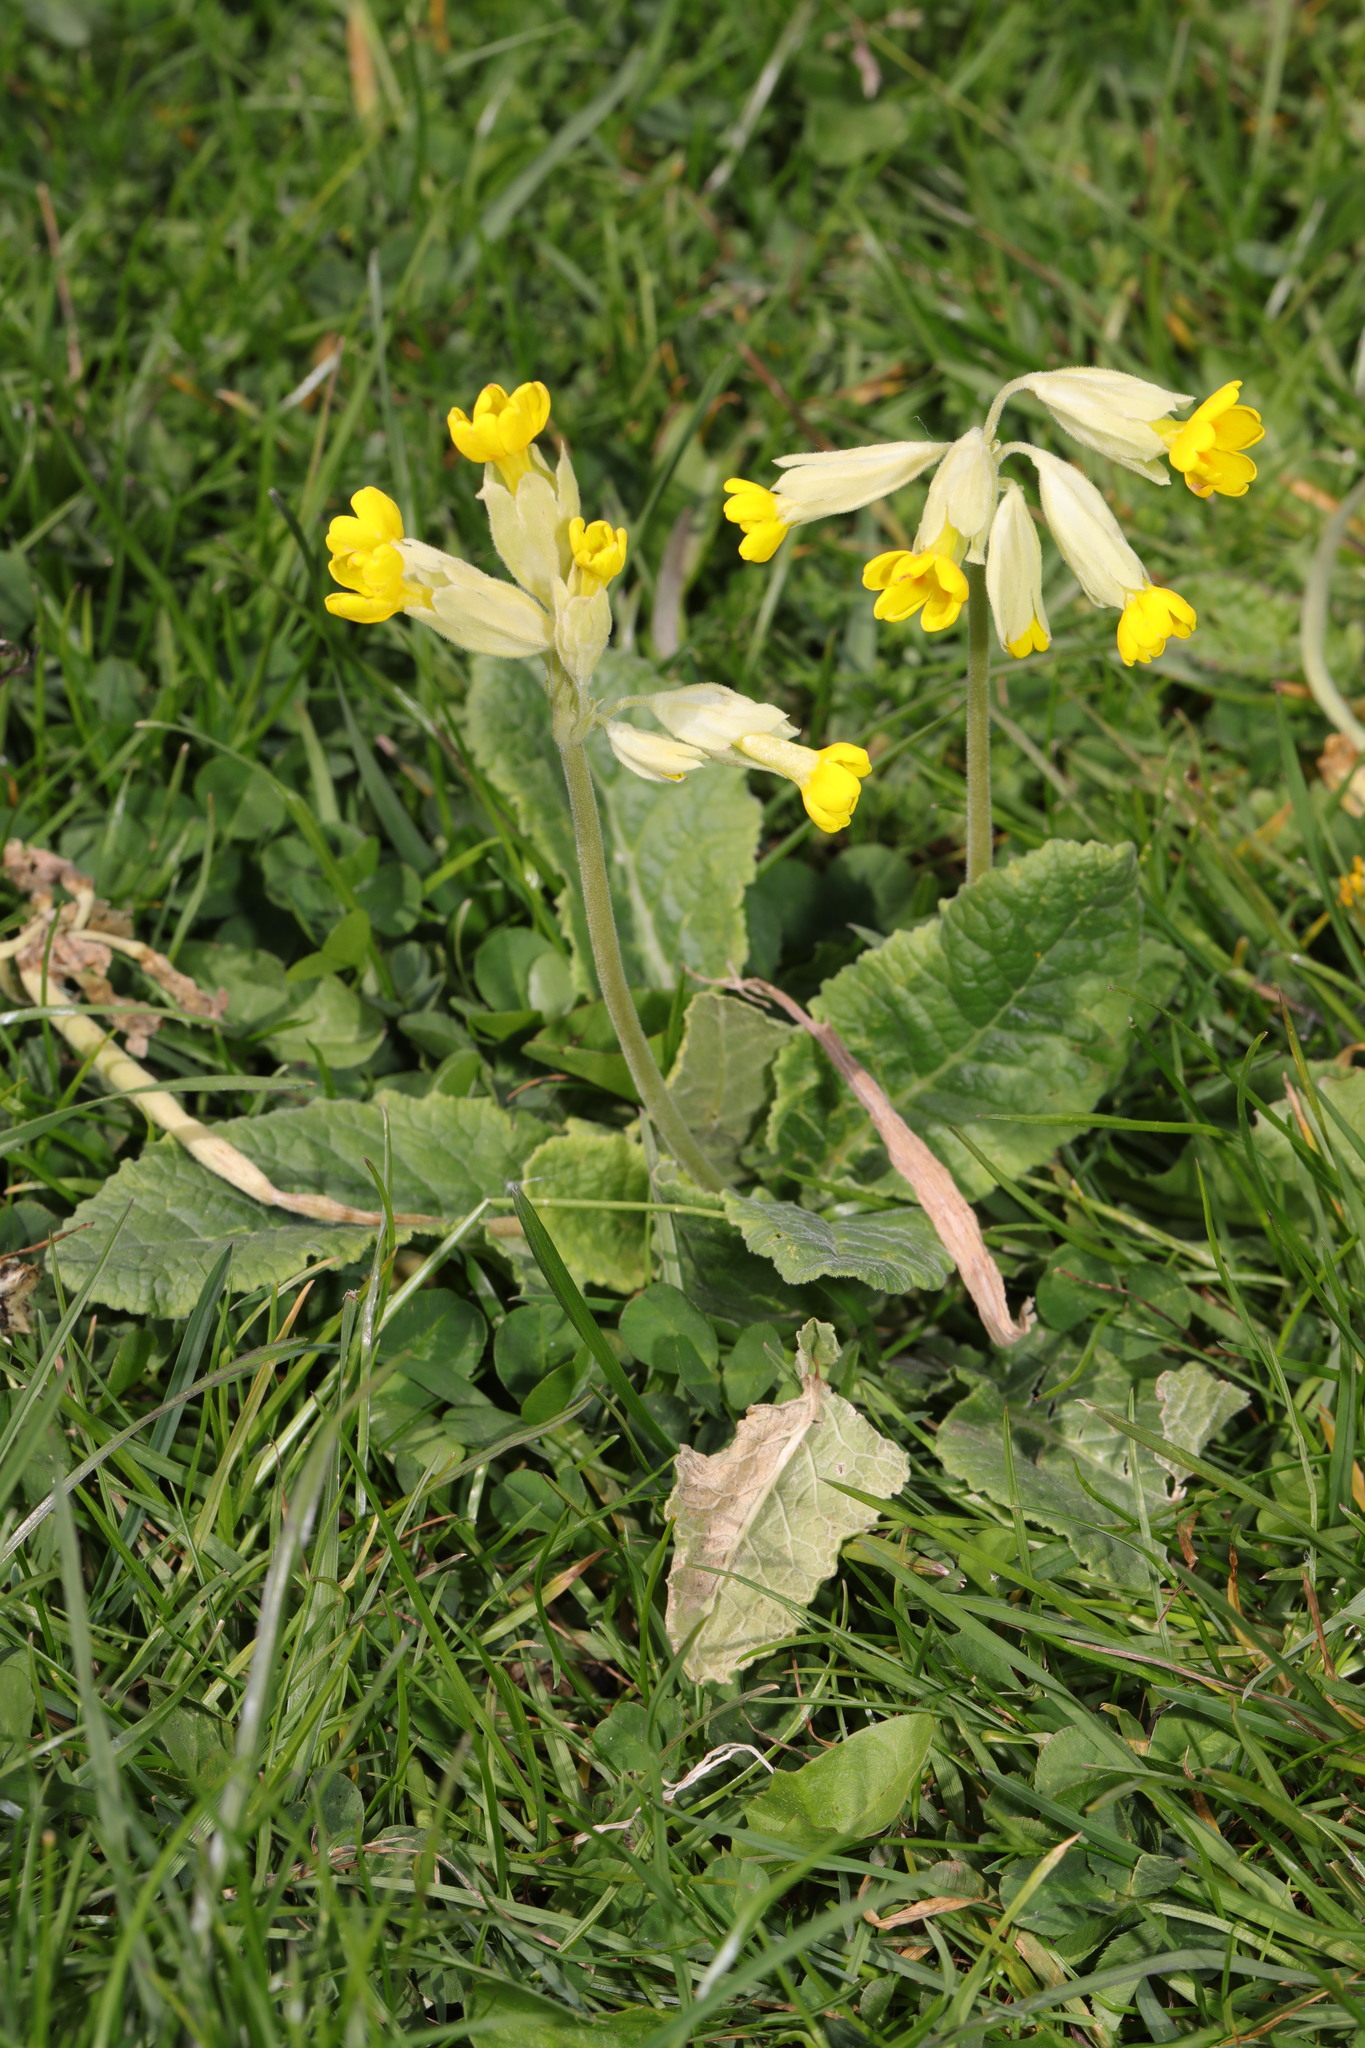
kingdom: Plantae
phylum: Tracheophyta
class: Magnoliopsida
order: Ericales
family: Primulaceae
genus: Primula
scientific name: Primula veris
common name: Cowslip
